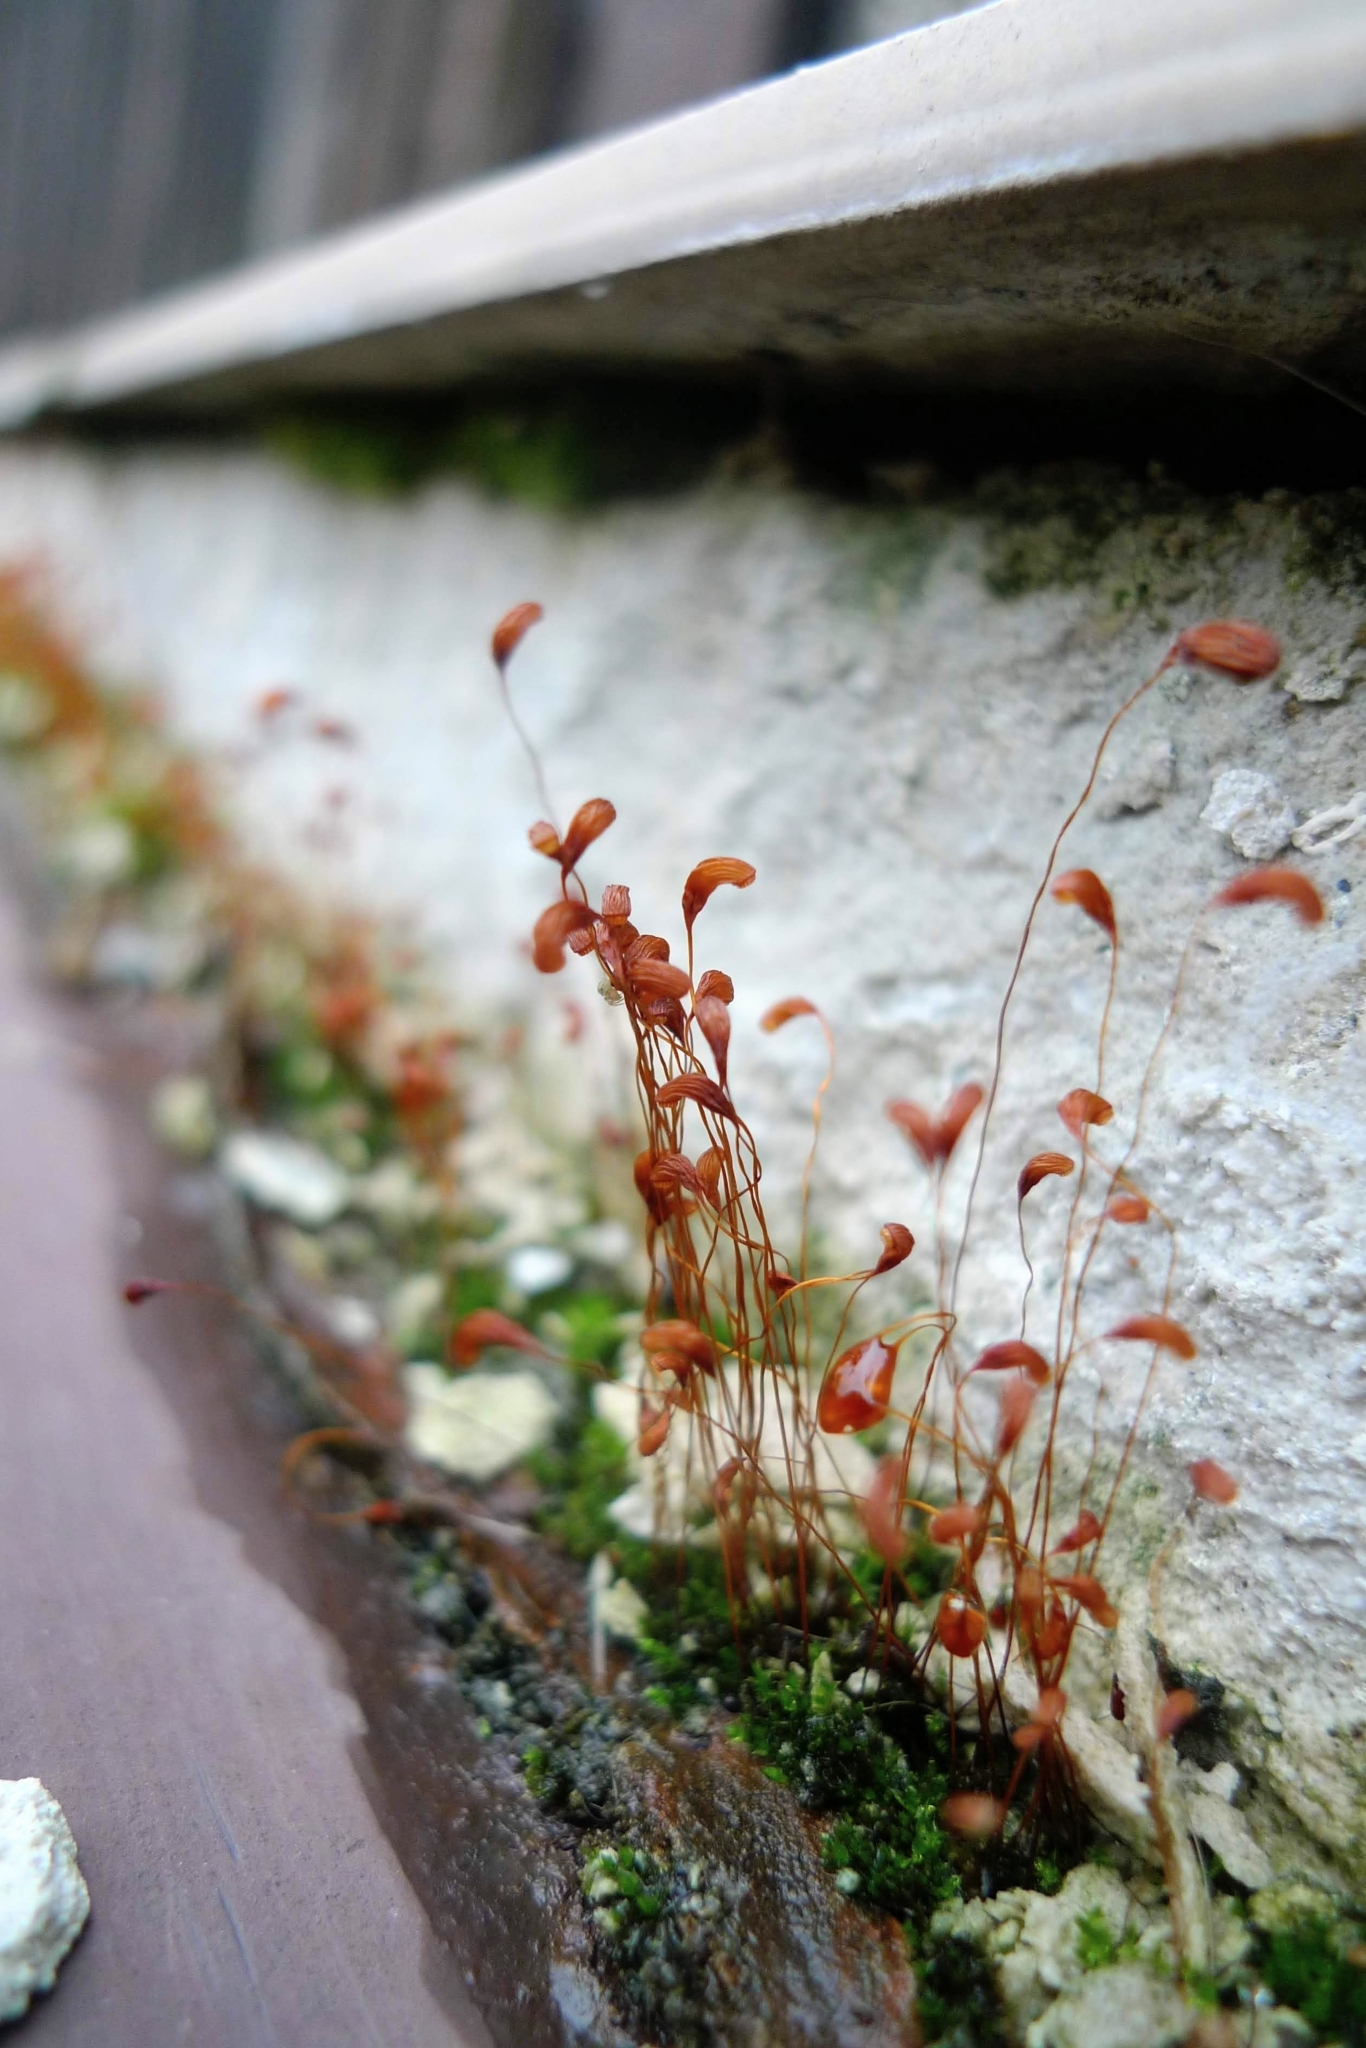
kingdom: Plantae
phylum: Bryophyta
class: Bryopsida
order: Funariales
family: Funariaceae
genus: Funaria
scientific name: Funaria hygrometrica
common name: Common cord moss
